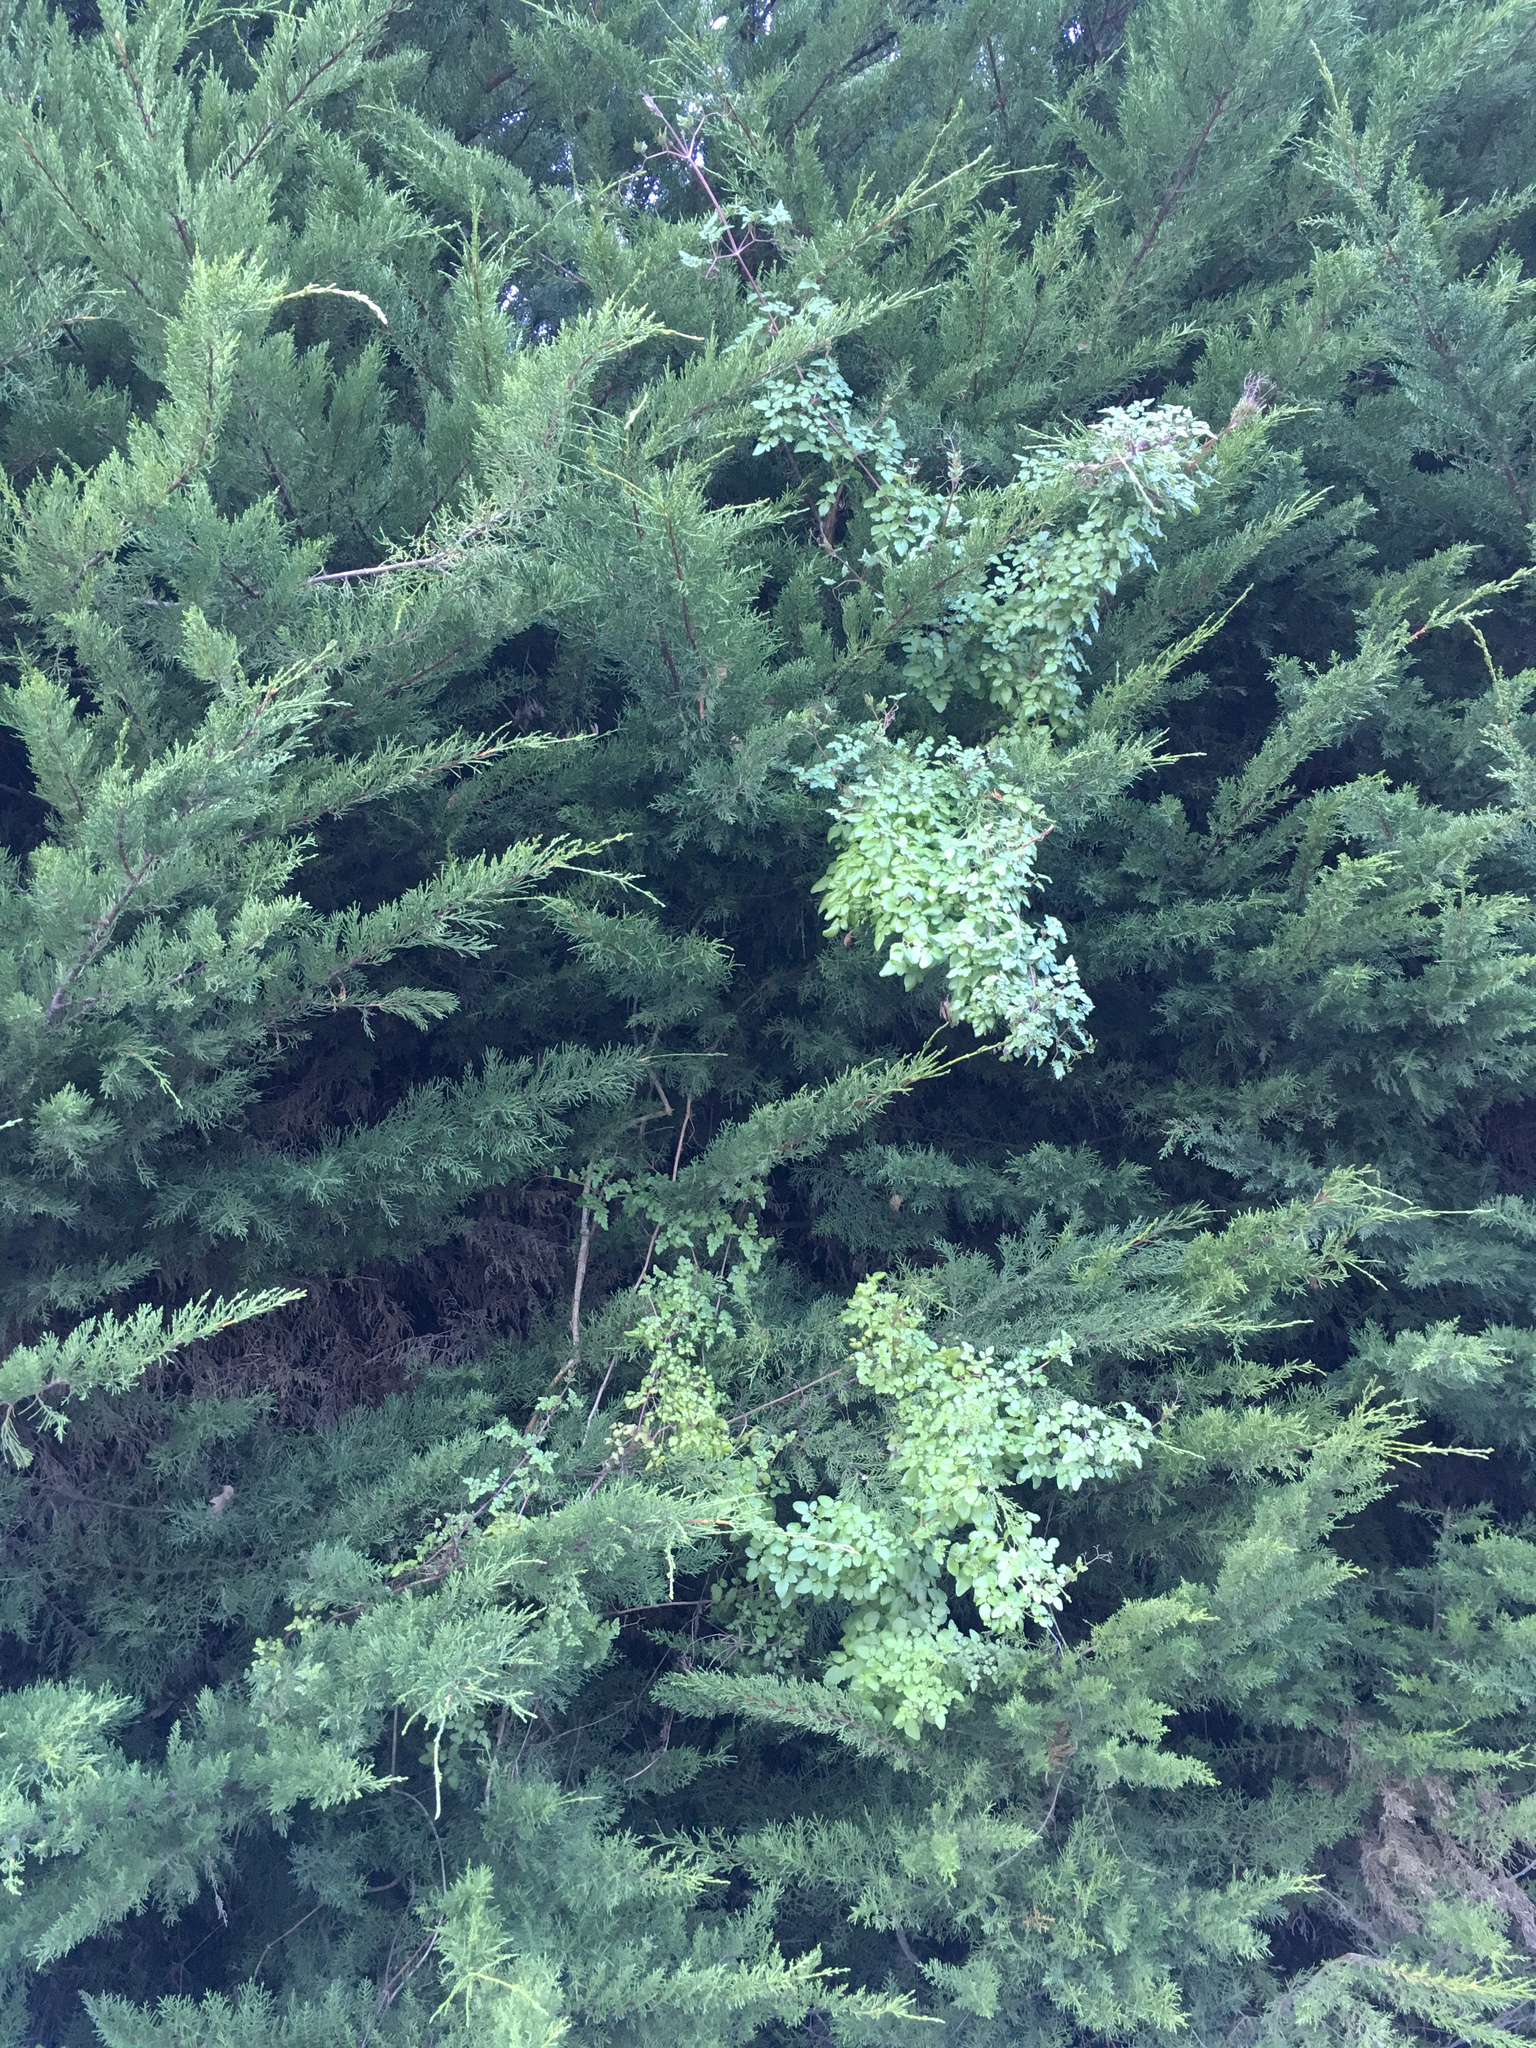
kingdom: Plantae
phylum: Tracheophyta
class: Magnoliopsida
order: Lamiales
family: Bignoniaceae
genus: Eccremocarpus
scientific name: Eccremocarpus scaber
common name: Chilean glory-flower
